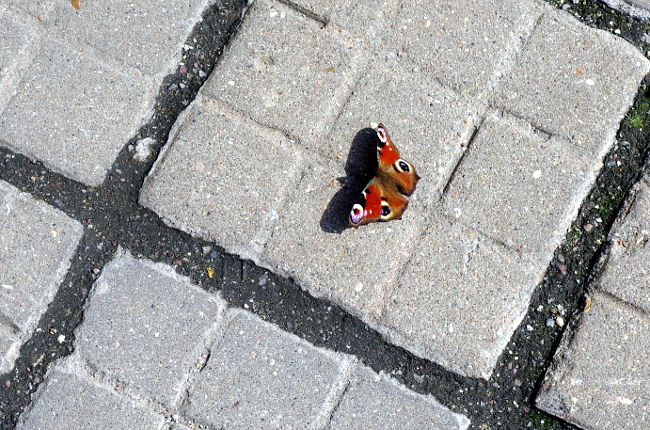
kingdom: Animalia
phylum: Arthropoda
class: Insecta
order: Lepidoptera
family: Nymphalidae
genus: Aglais
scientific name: Aglais io
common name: Peacock
